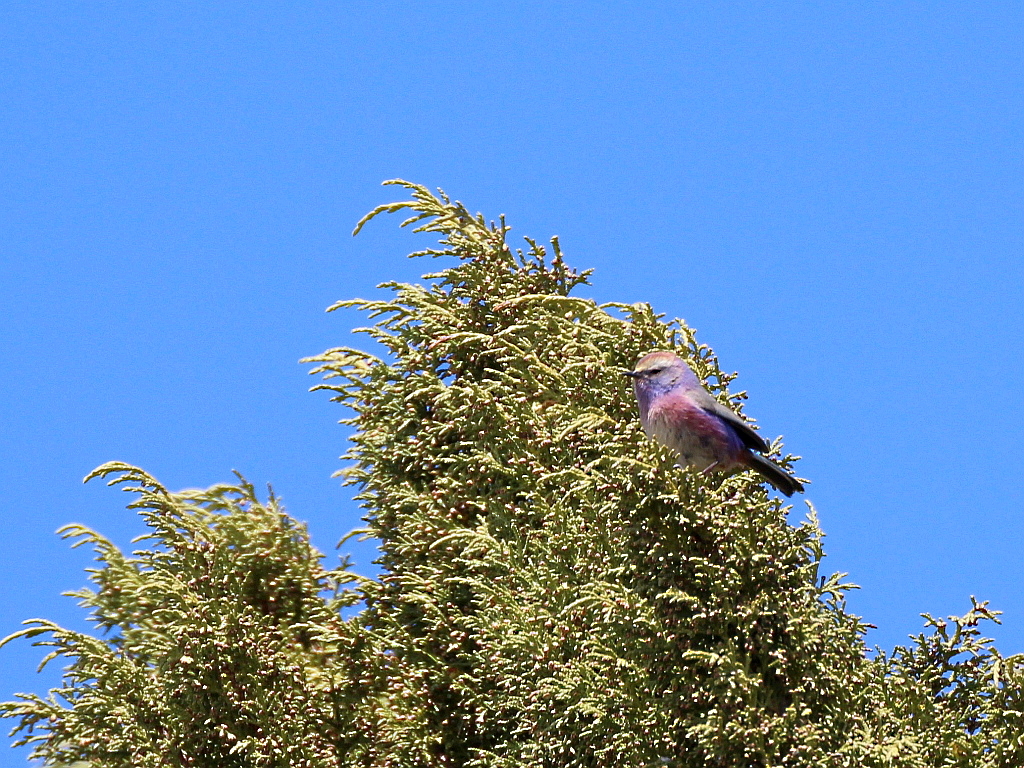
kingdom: Animalia
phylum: Chordata
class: Aves
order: Passeriformes
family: Aegithalidae
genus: Leptopoecile
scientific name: Leptopoecile sophiae
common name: White-browed tit-warbler
